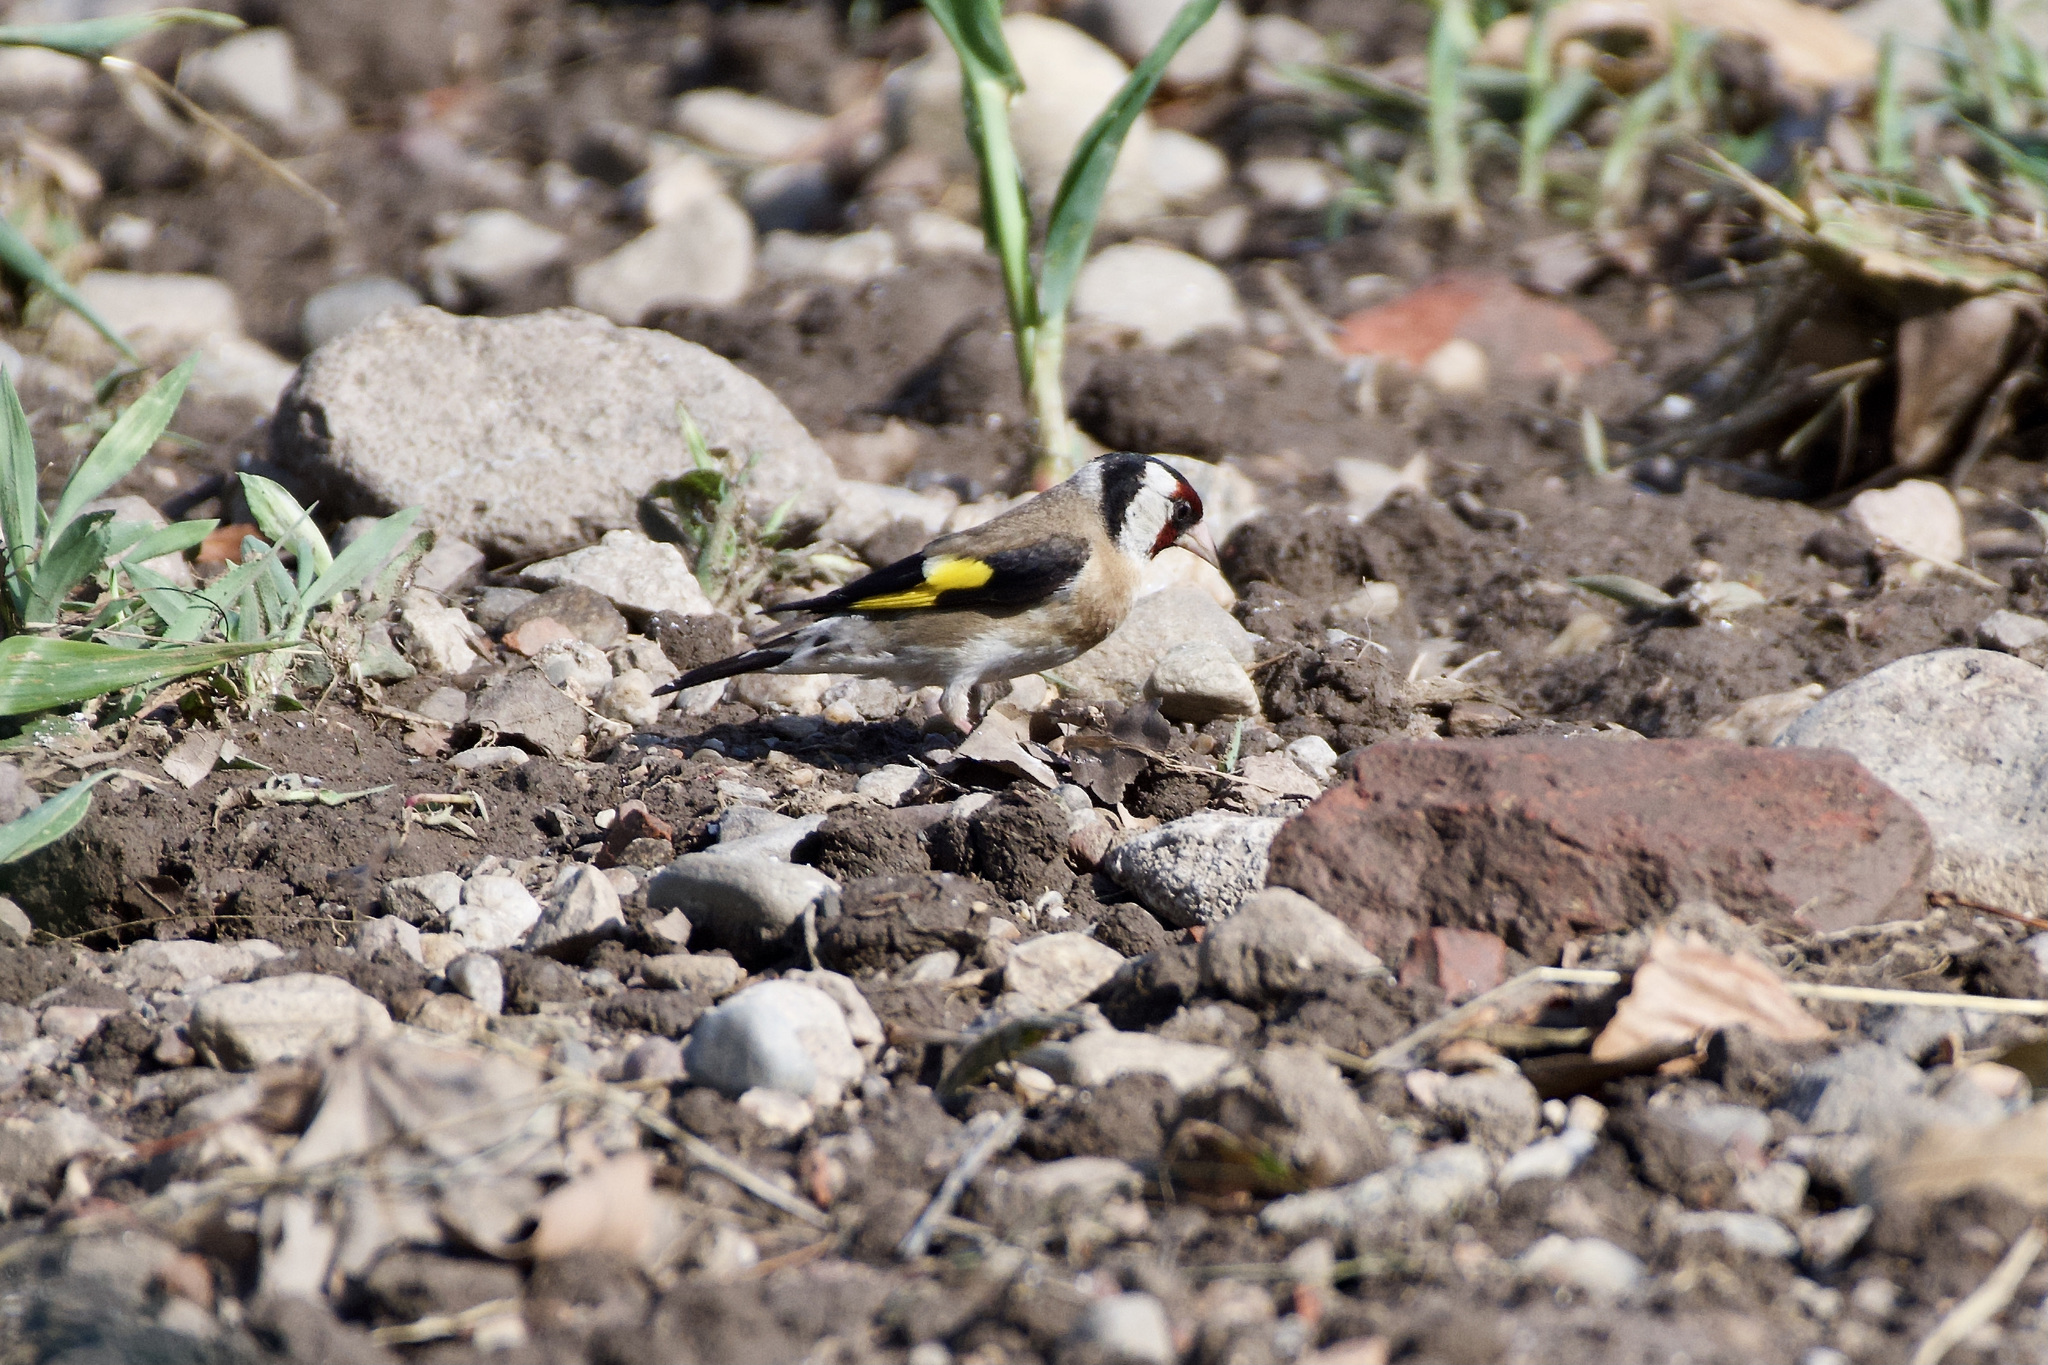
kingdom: Animalia
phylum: Chordata
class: Aves
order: Passeriformes
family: Fringillidae
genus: Carduelis
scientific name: Carduelis carduelis
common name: European goldfinch
